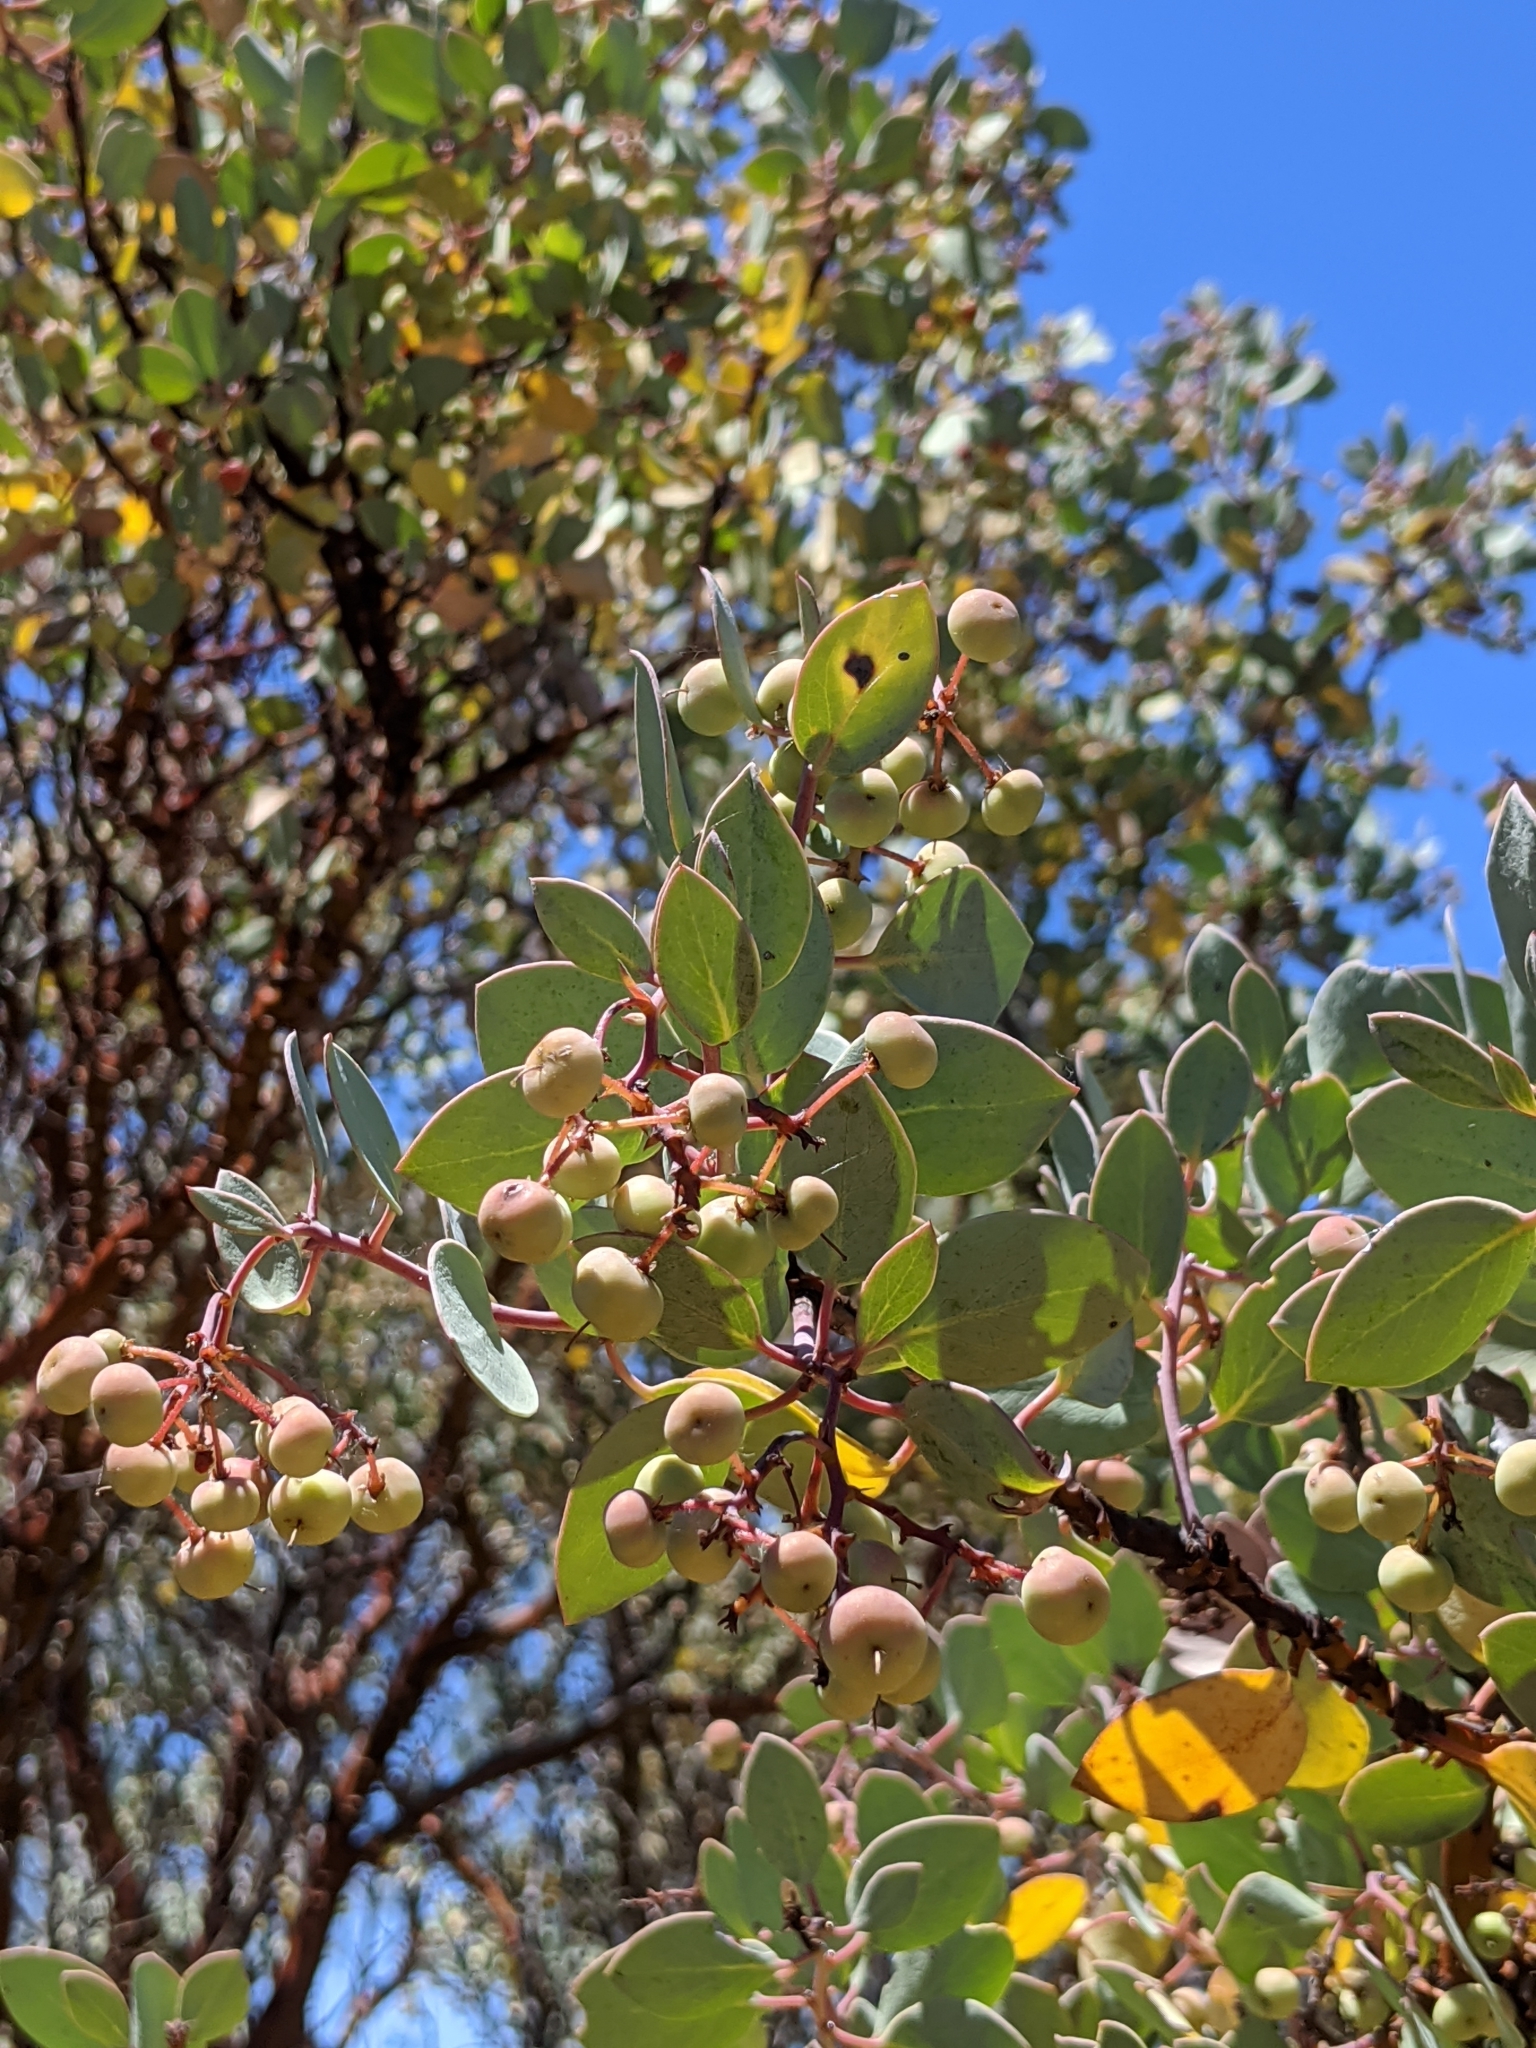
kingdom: Plantae
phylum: Tracheophyta
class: Magnoliopsida
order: Ericales
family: Ericaceae
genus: Arctostaphylos
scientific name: Arctostaphylos viscida
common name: White-leaf manzanita
